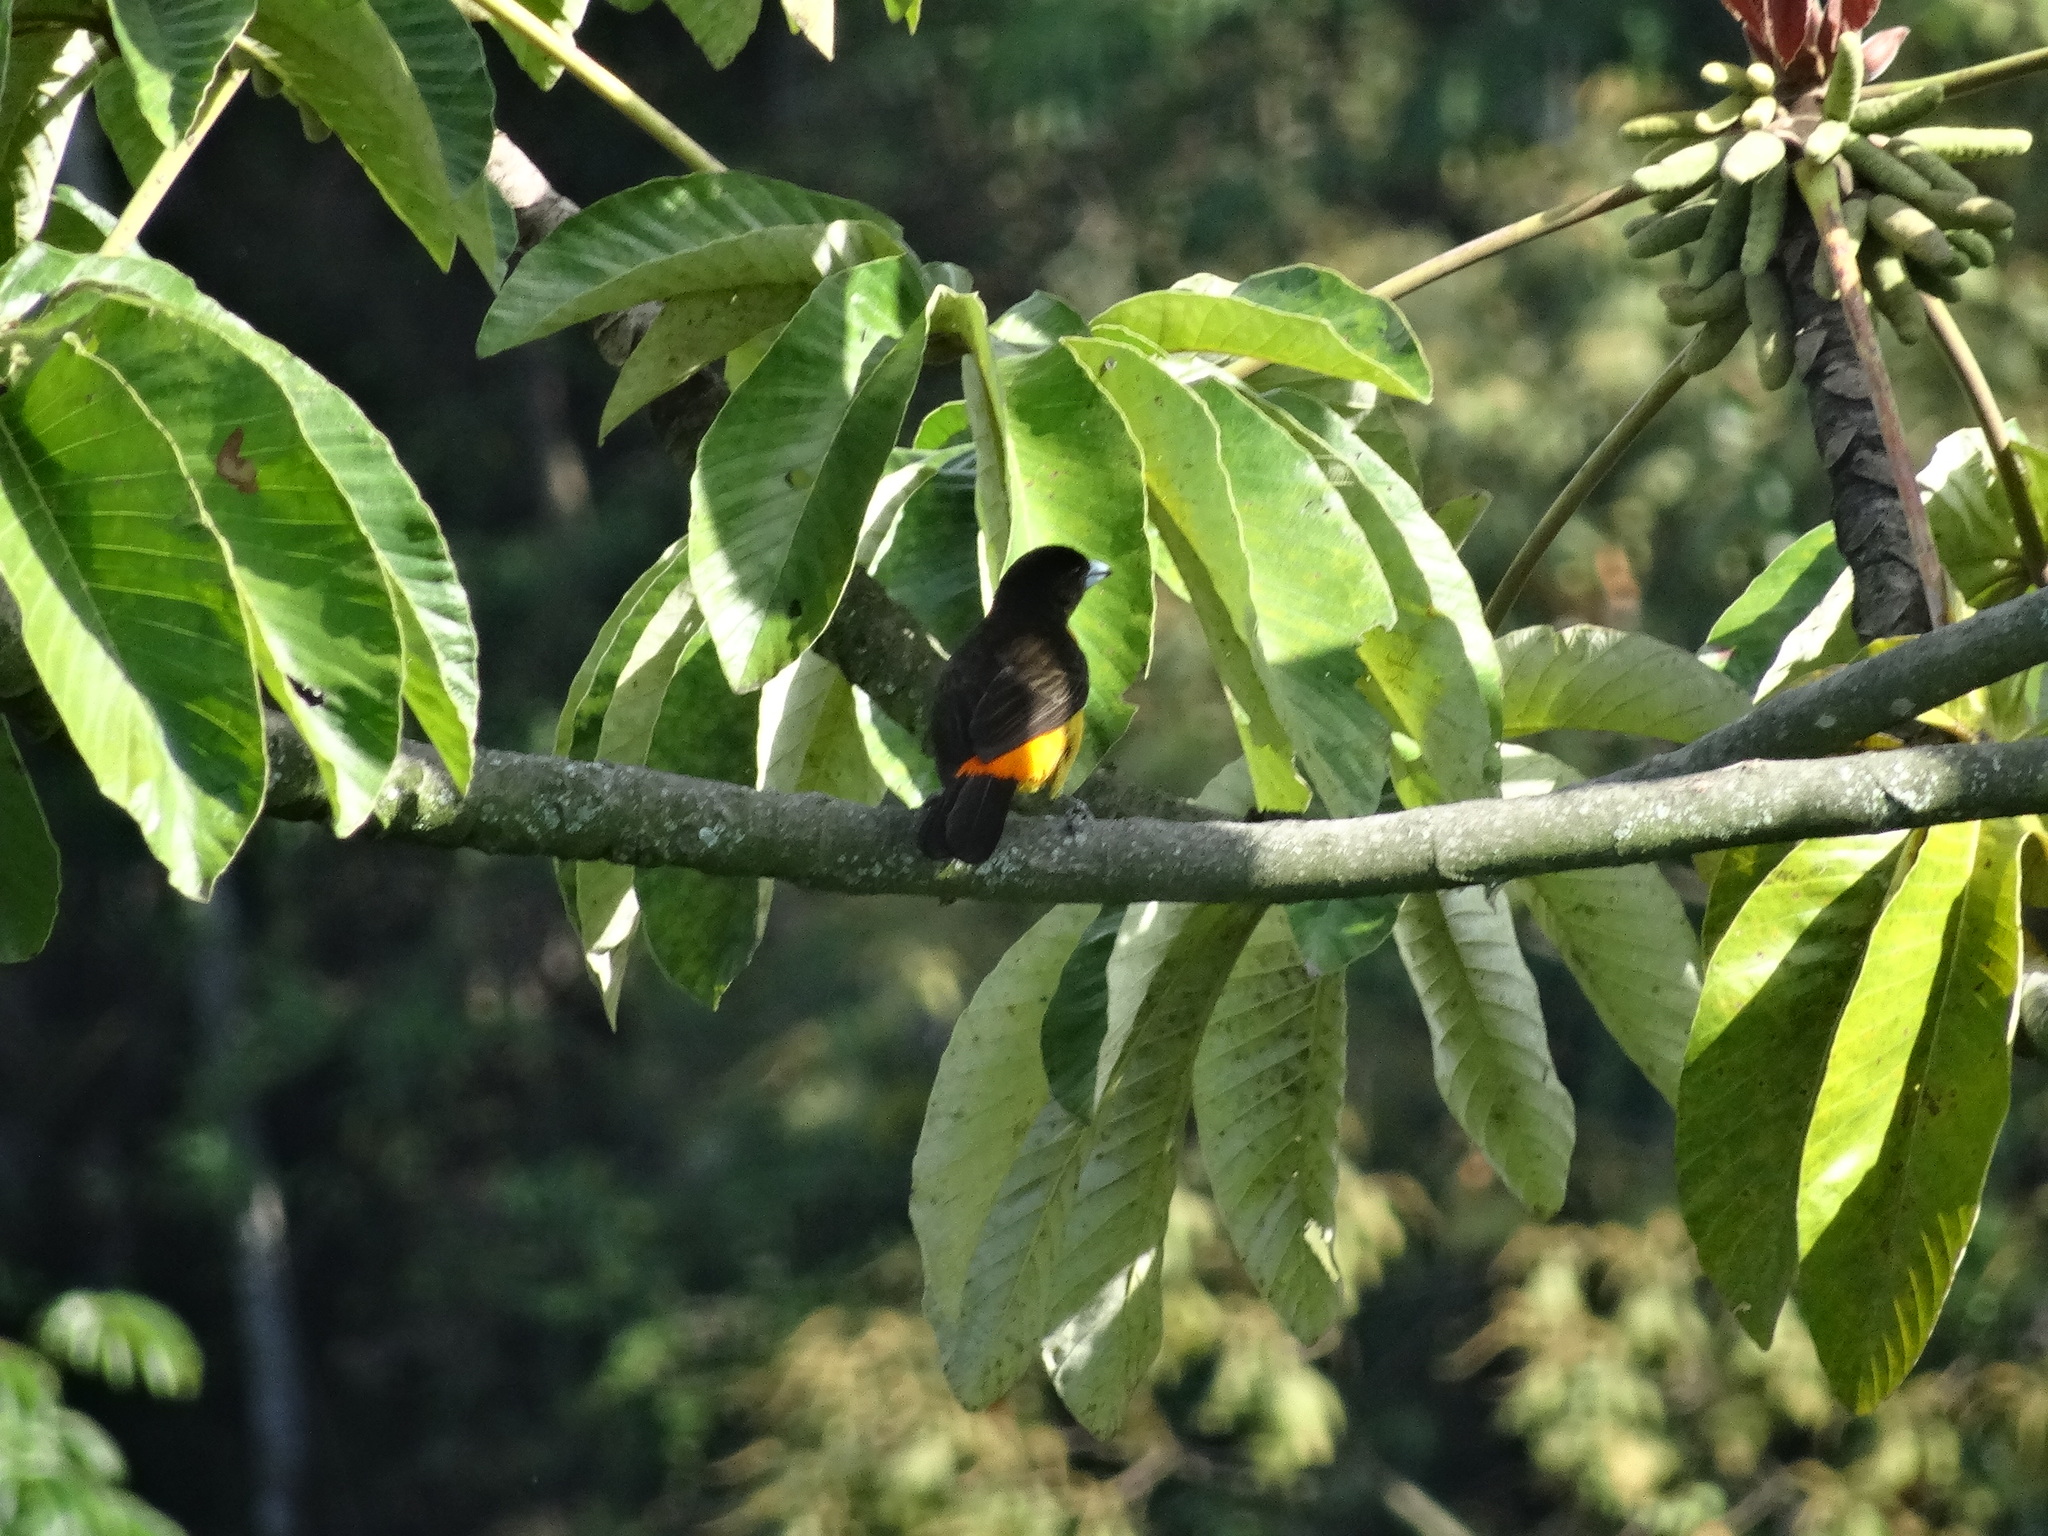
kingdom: Animalia
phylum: Chordata
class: Aves
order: Passeriformes
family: Thraupidae
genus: Ramphocelus
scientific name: Ramphocelus flammigerus
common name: Flame-rumped tanager
